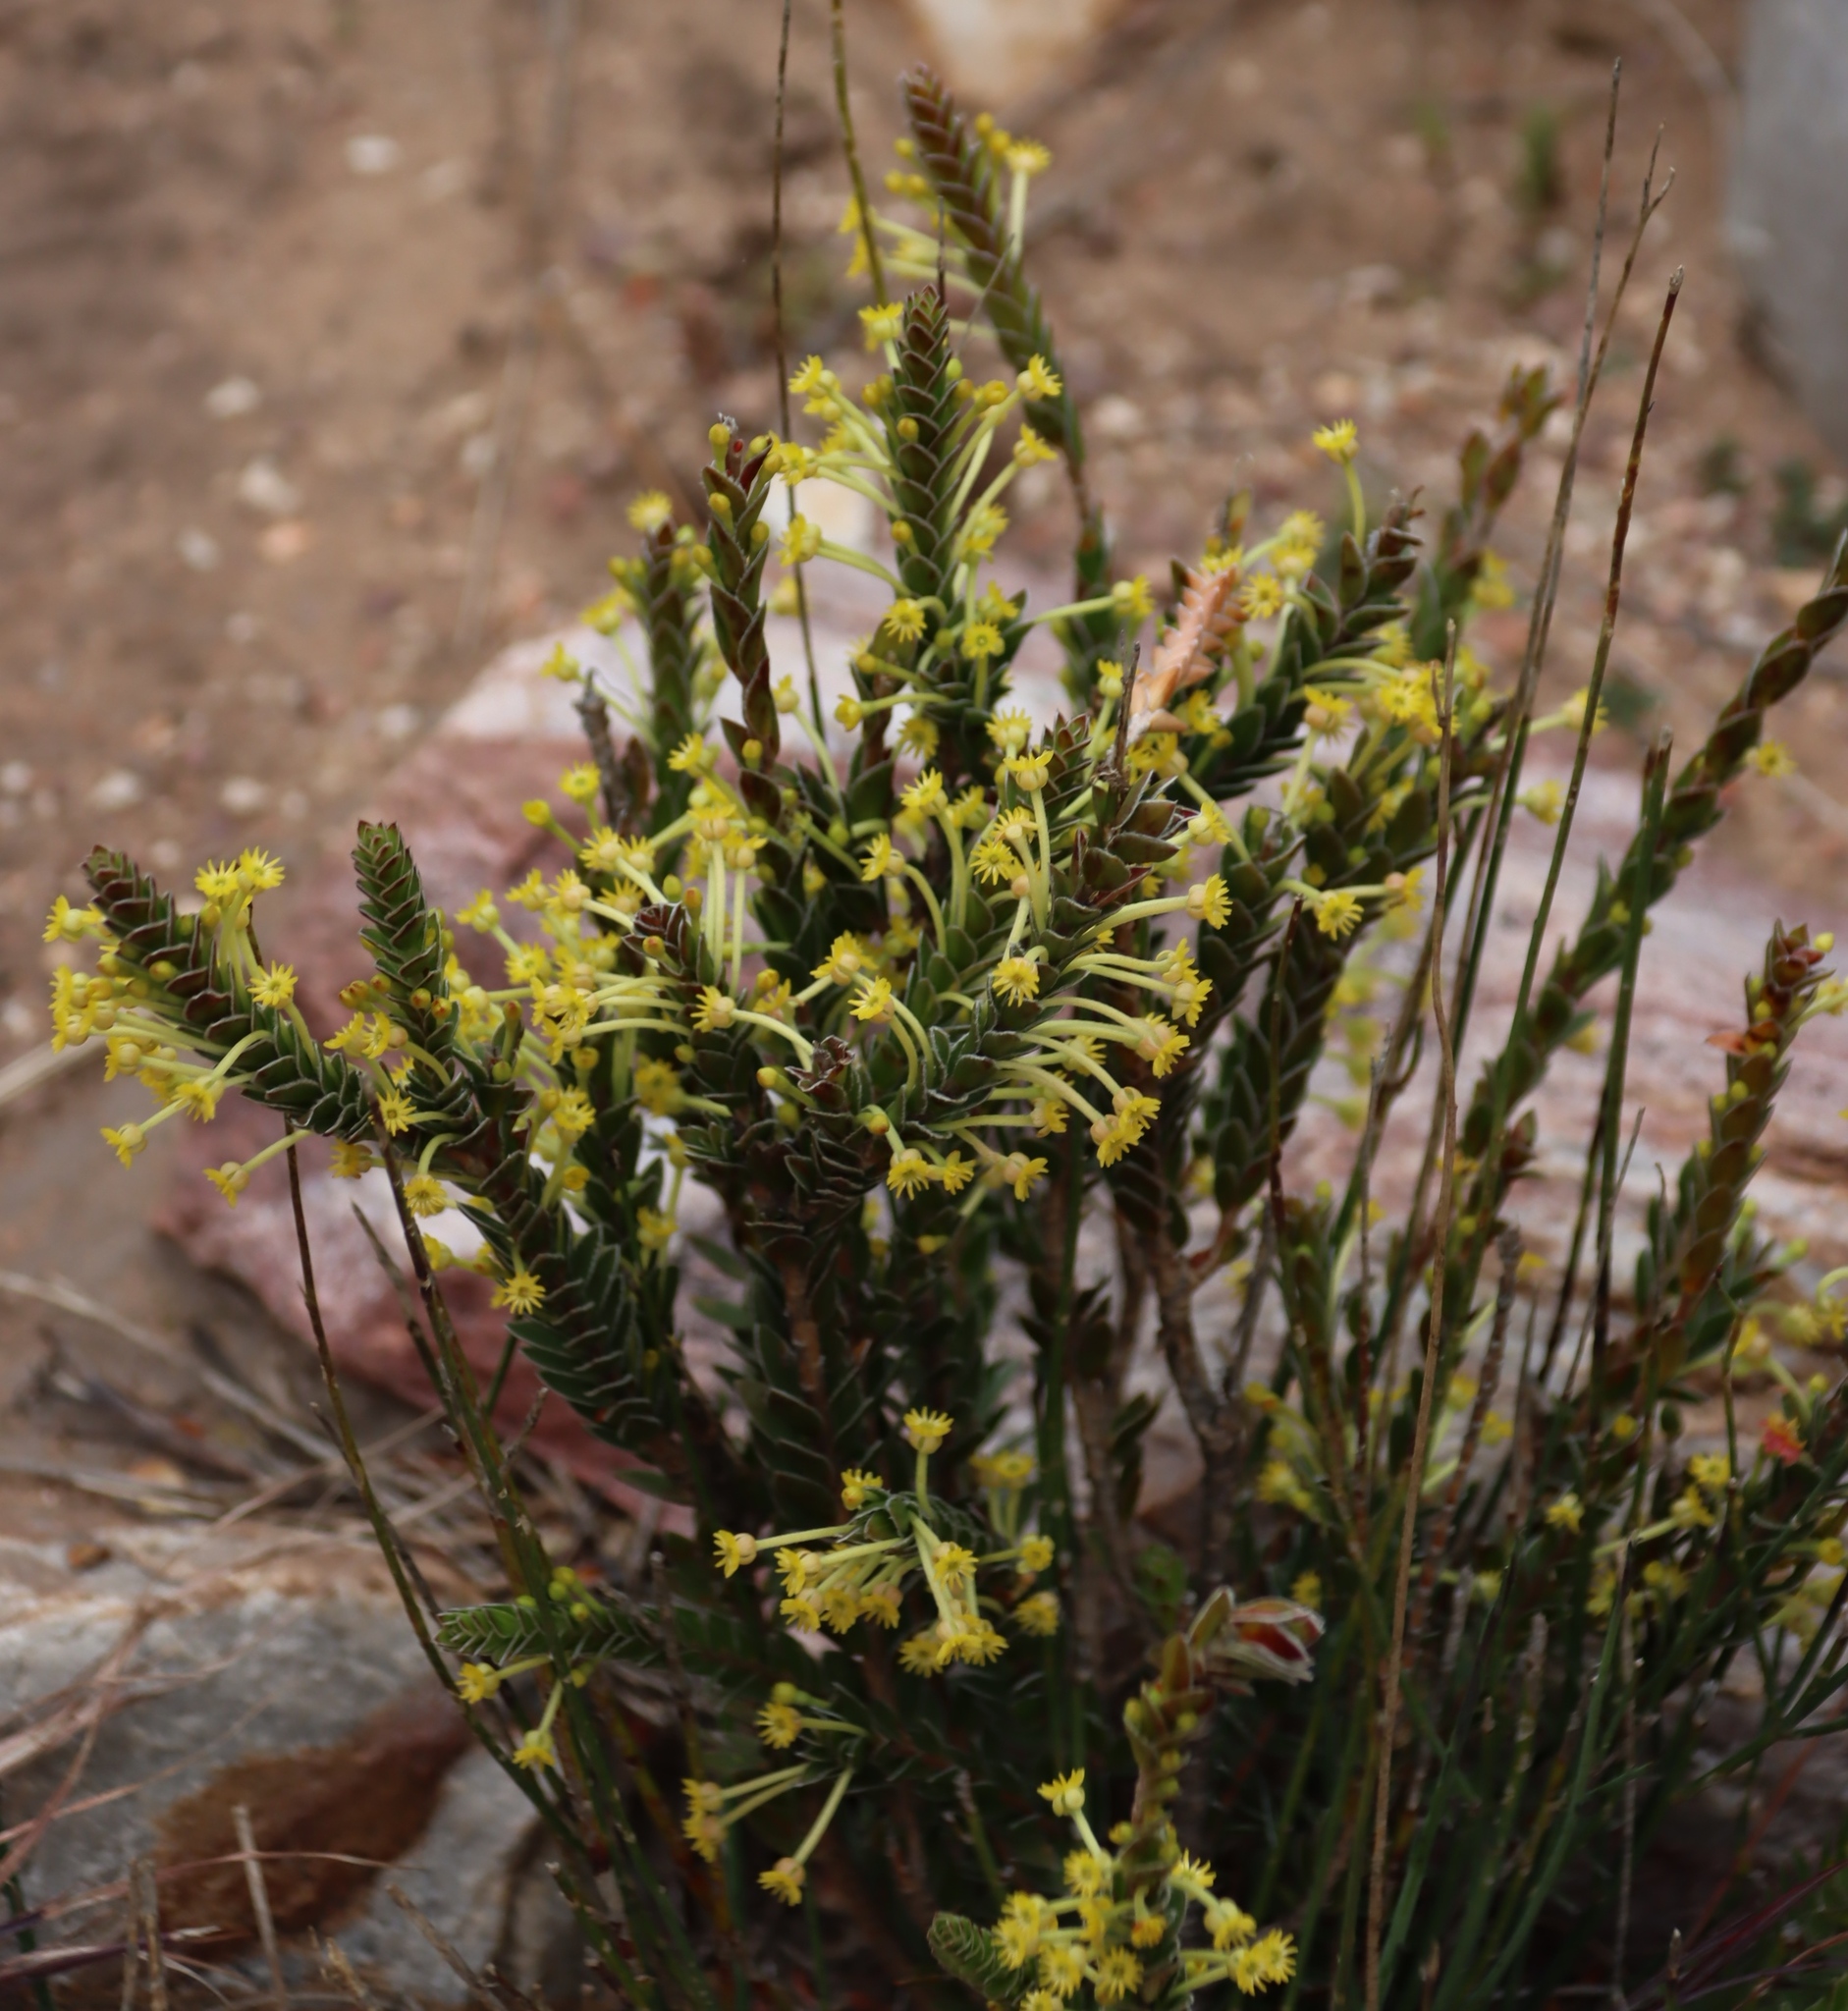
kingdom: Plantae
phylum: Tracheophyta
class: Magnoliopsida
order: Malvales
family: Thymelaeaceae
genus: Struthiola
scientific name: Struthiola argentea
